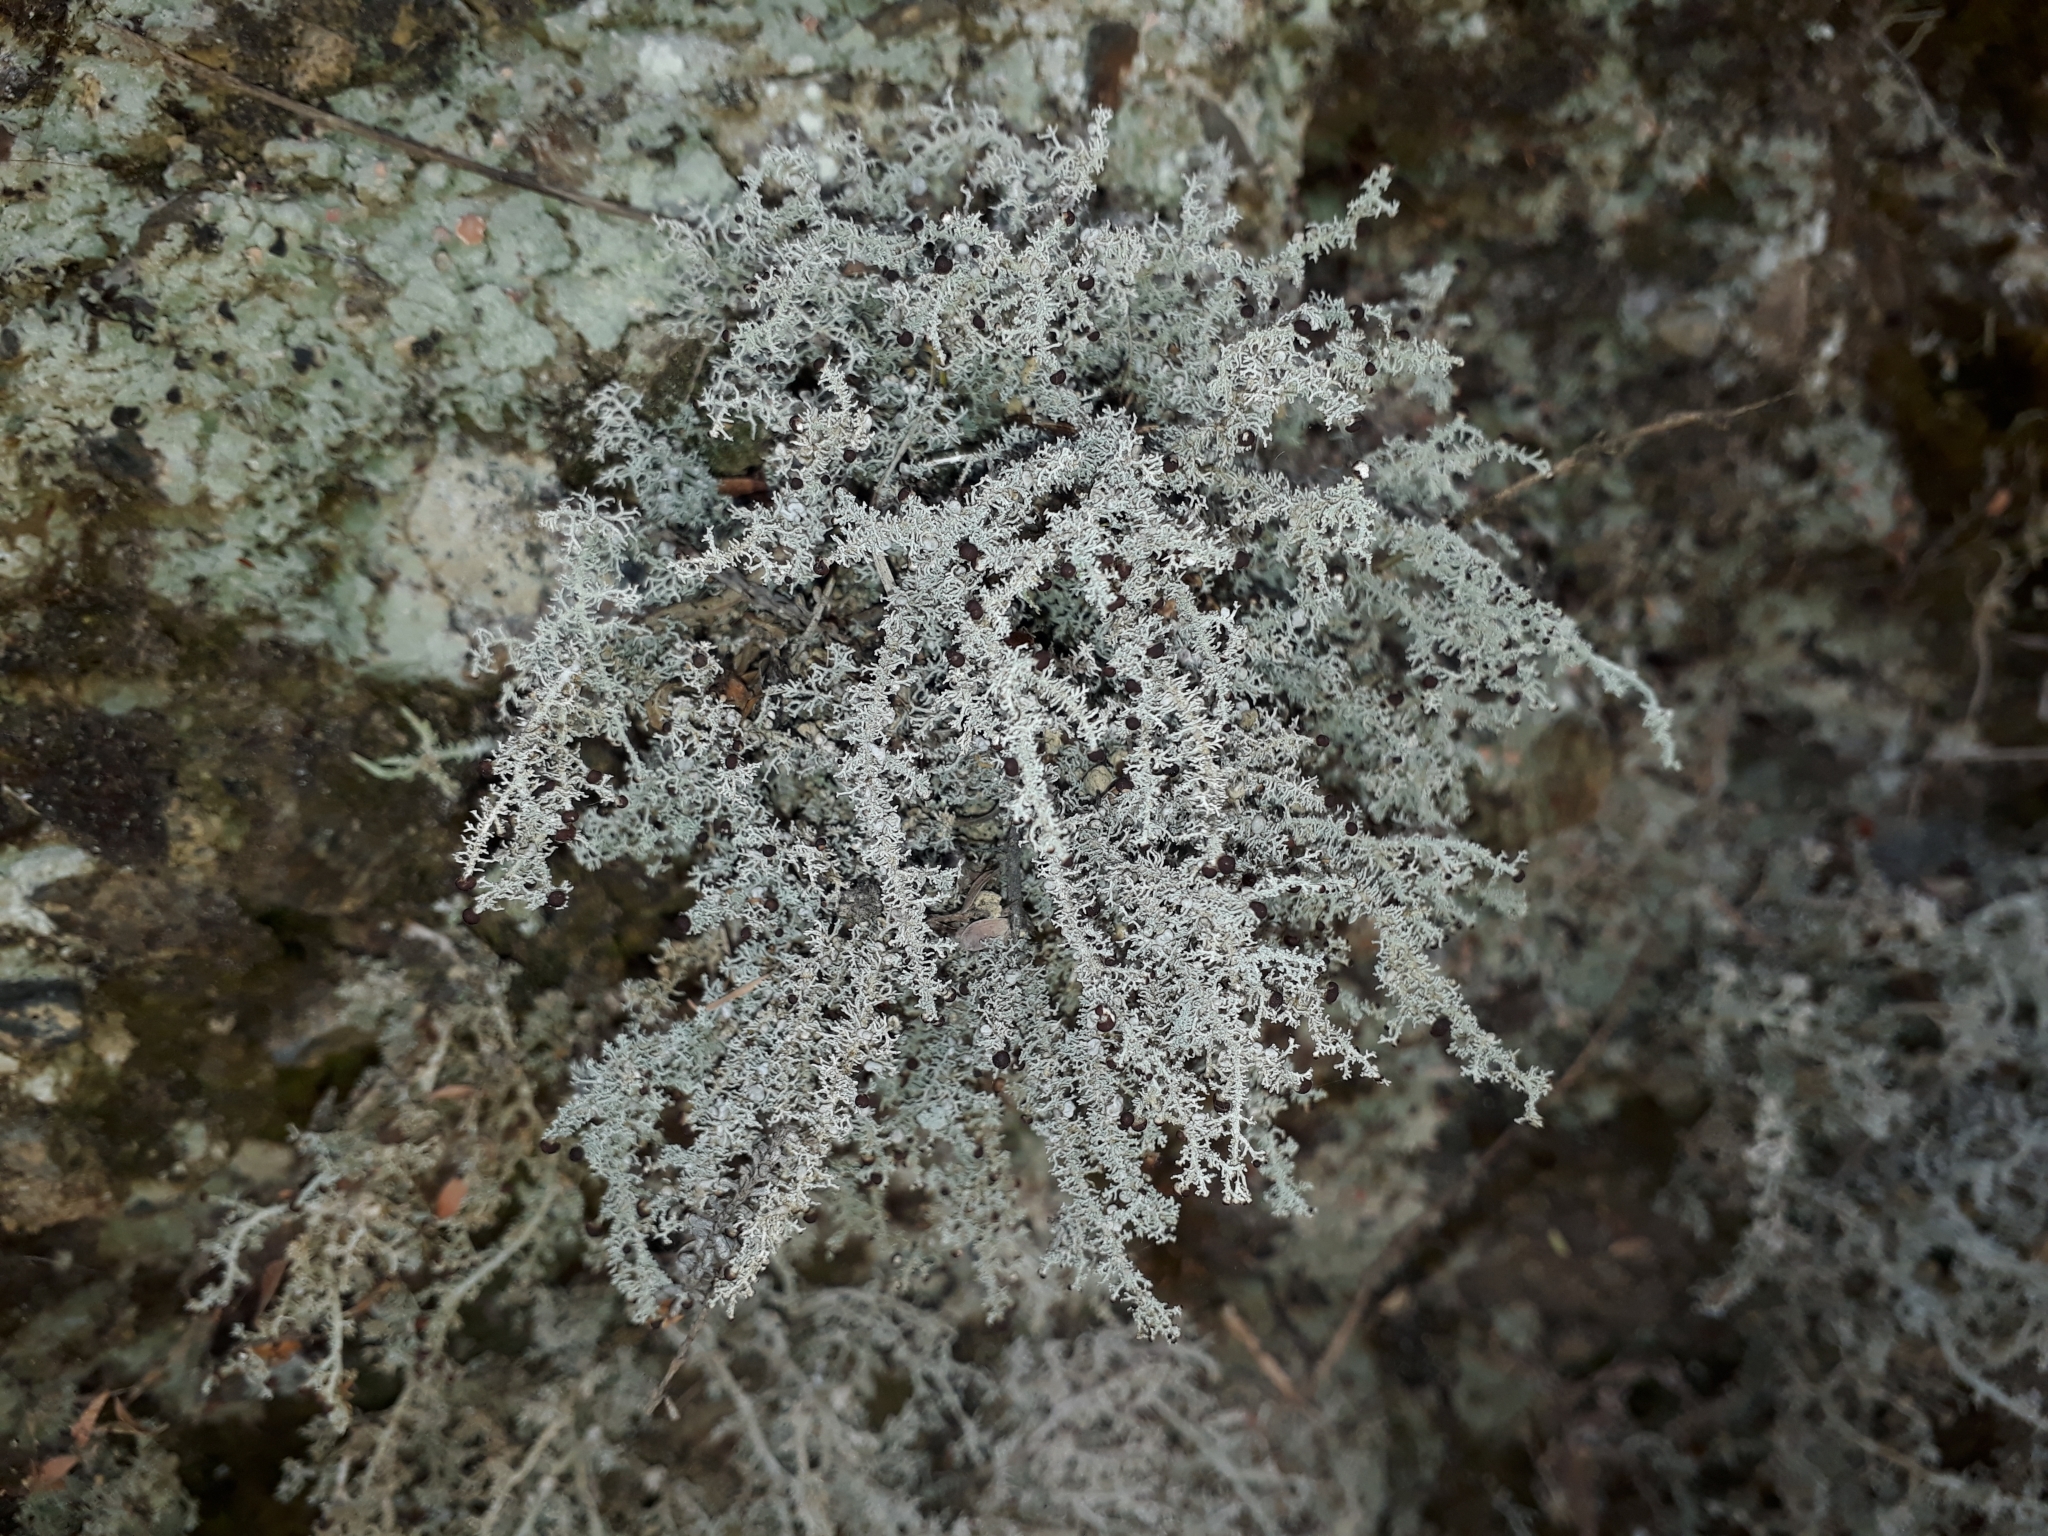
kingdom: Fungi
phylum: Ascomycota
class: Lecanoromycetes
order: Lecanorales
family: Stereocaulaceae
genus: Stereocaulon
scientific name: Stereocaulon ramulosum
